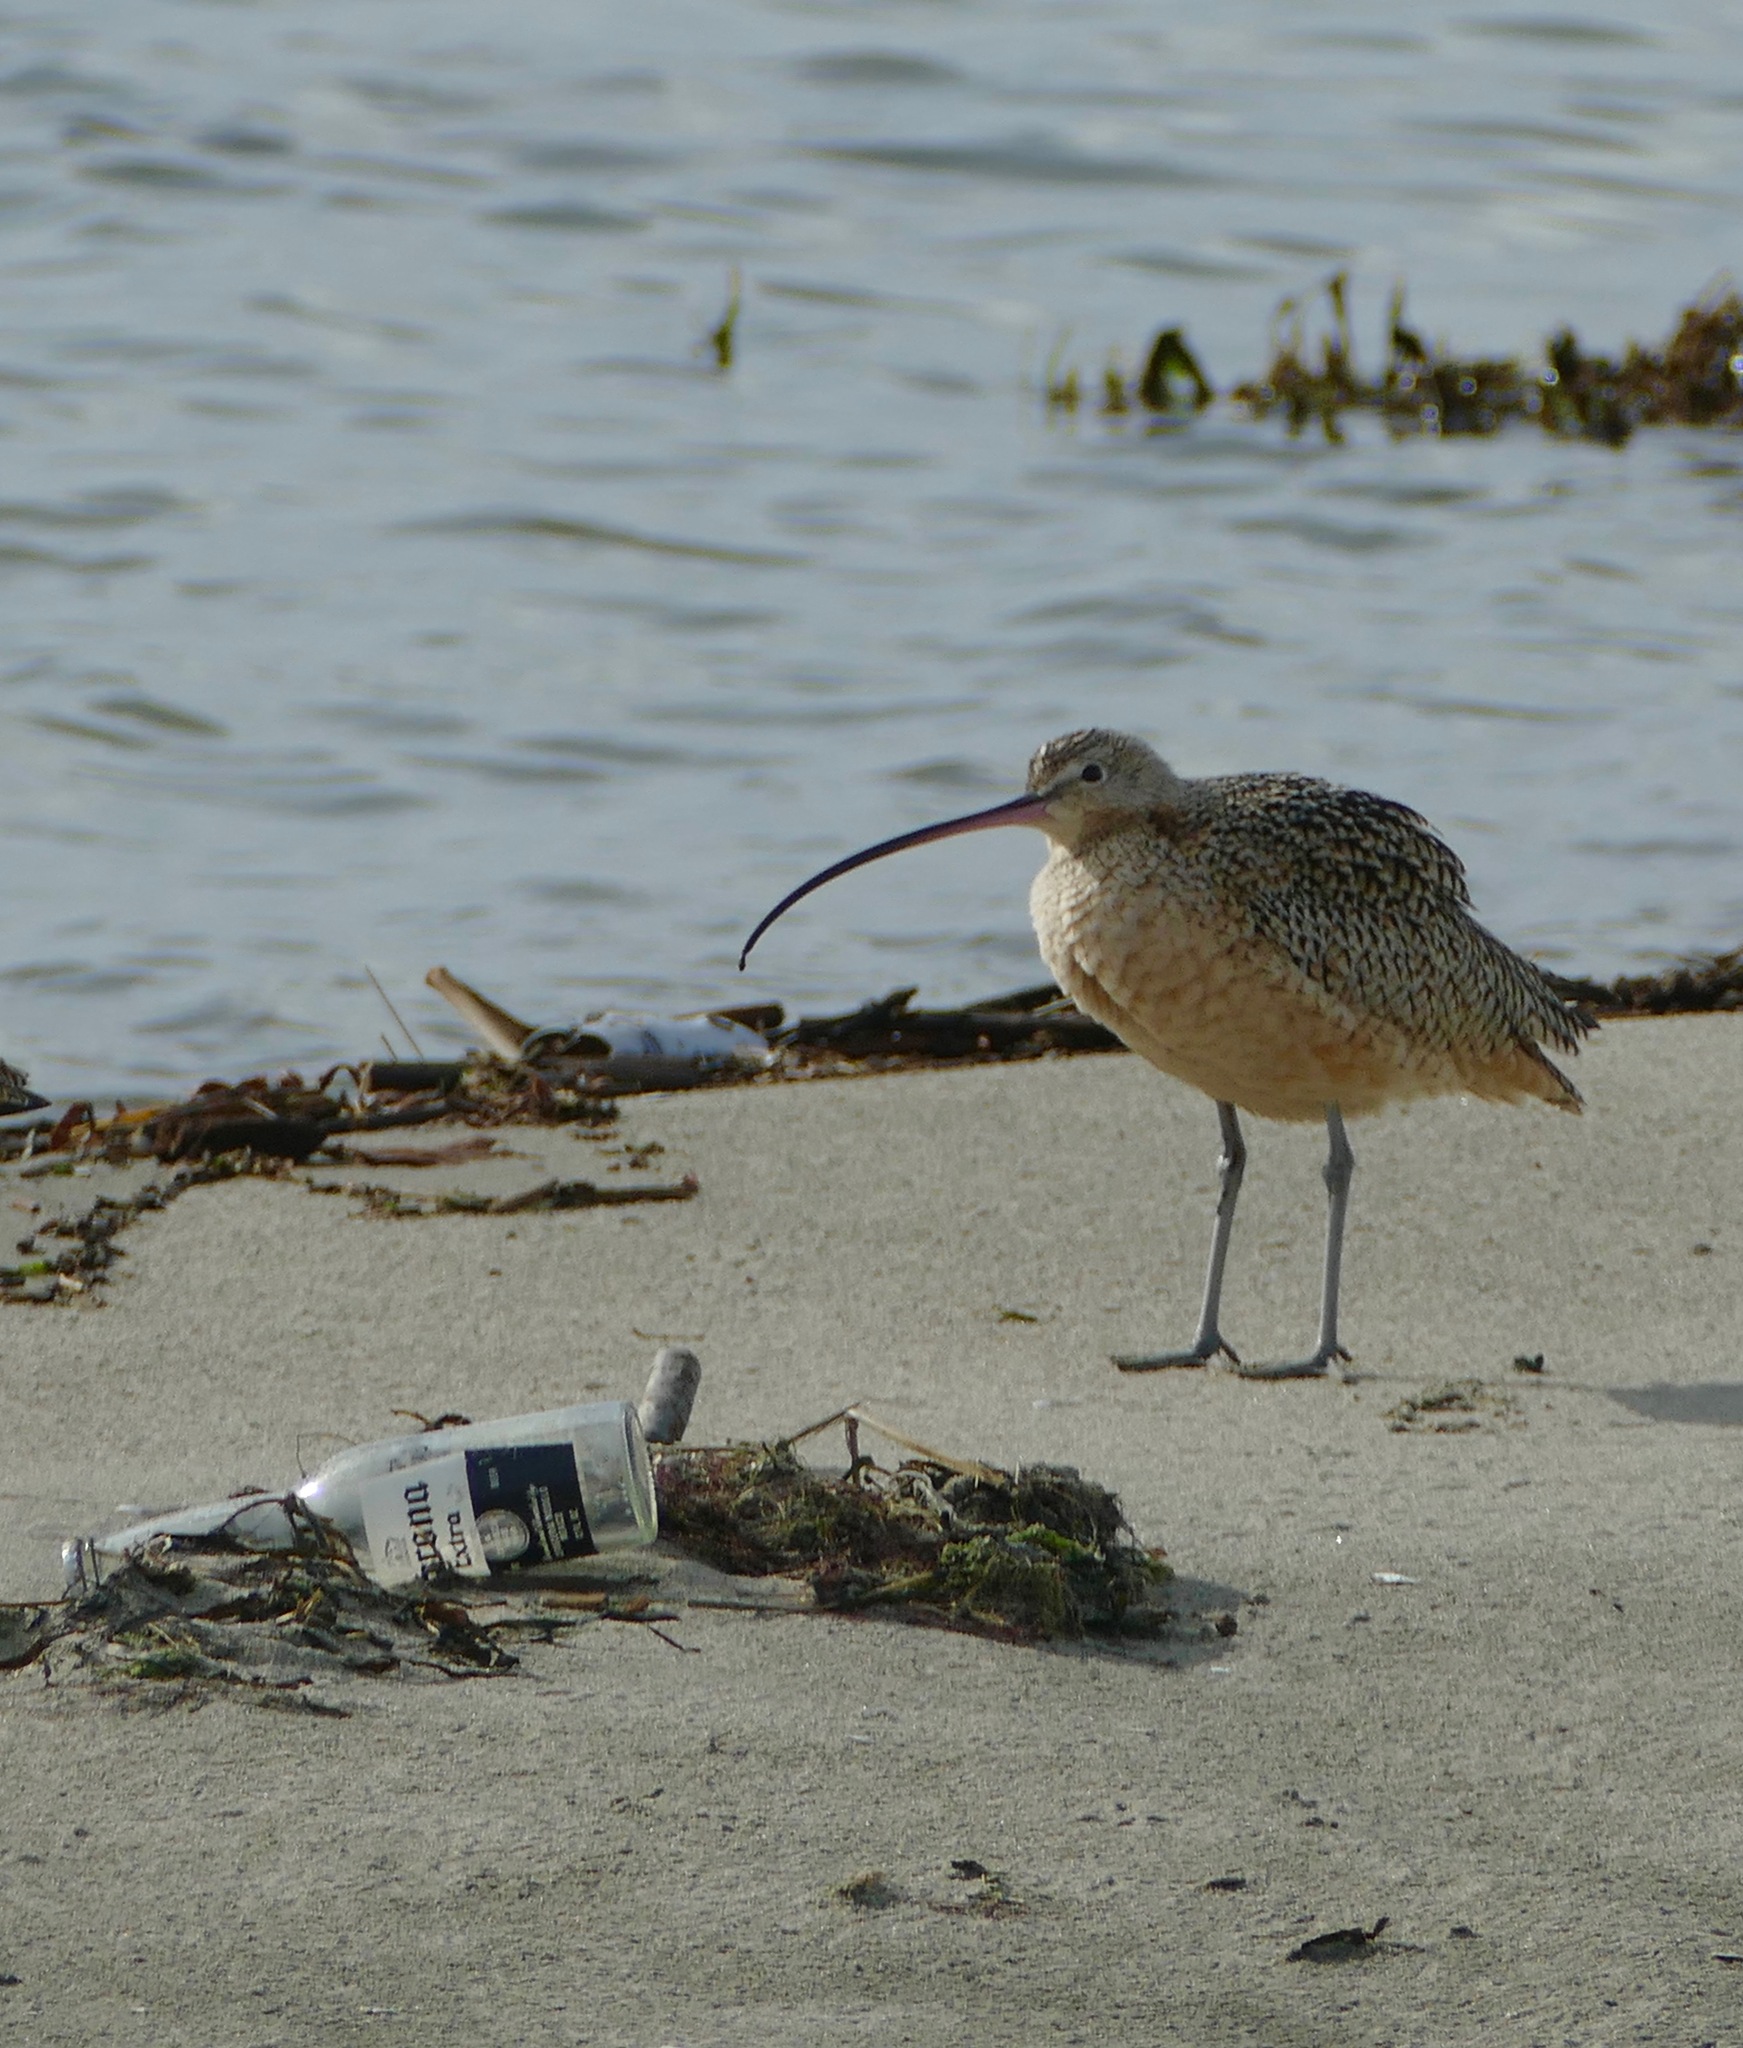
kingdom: Animalia
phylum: Chordata
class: Aves
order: Charadriiformes
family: Scolopacidae
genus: Numenius
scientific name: Numenius americanus
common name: Long-billed curlew
